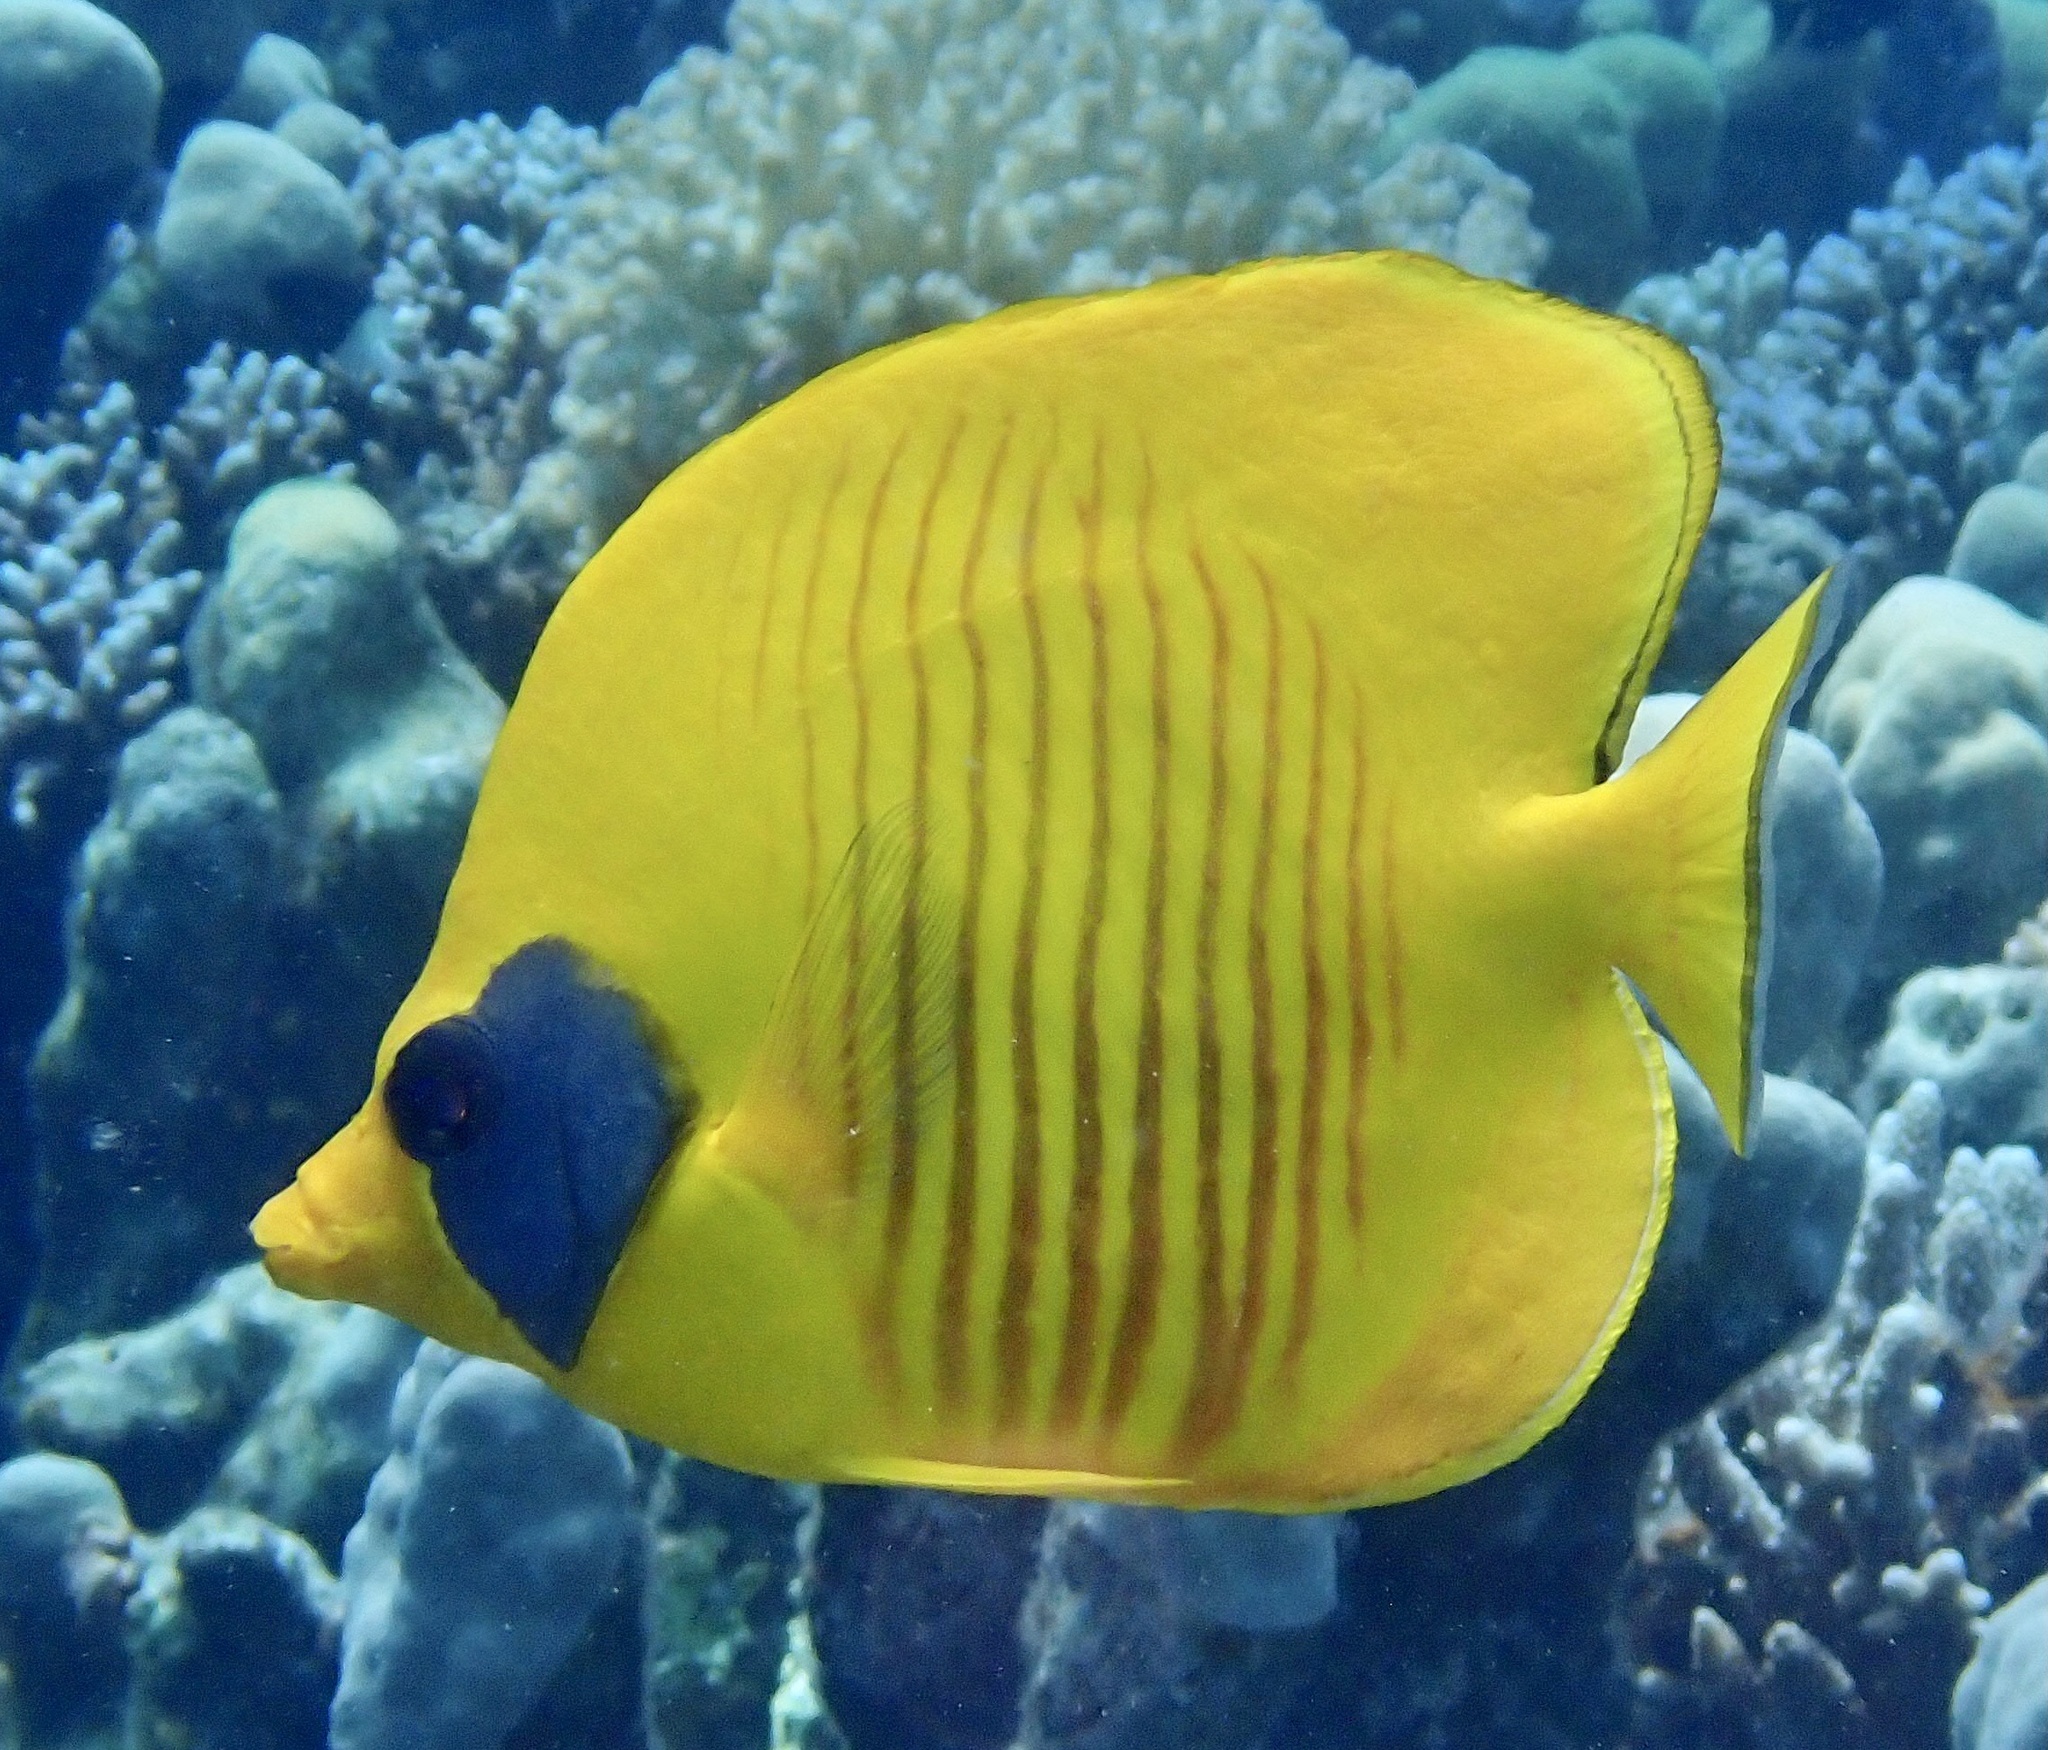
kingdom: Animalia
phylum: Chordata
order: Perciformes
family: Chaetodontidae
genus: Chaetodon
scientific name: Chaetodon semilarvatus
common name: Golden butterflyfish
